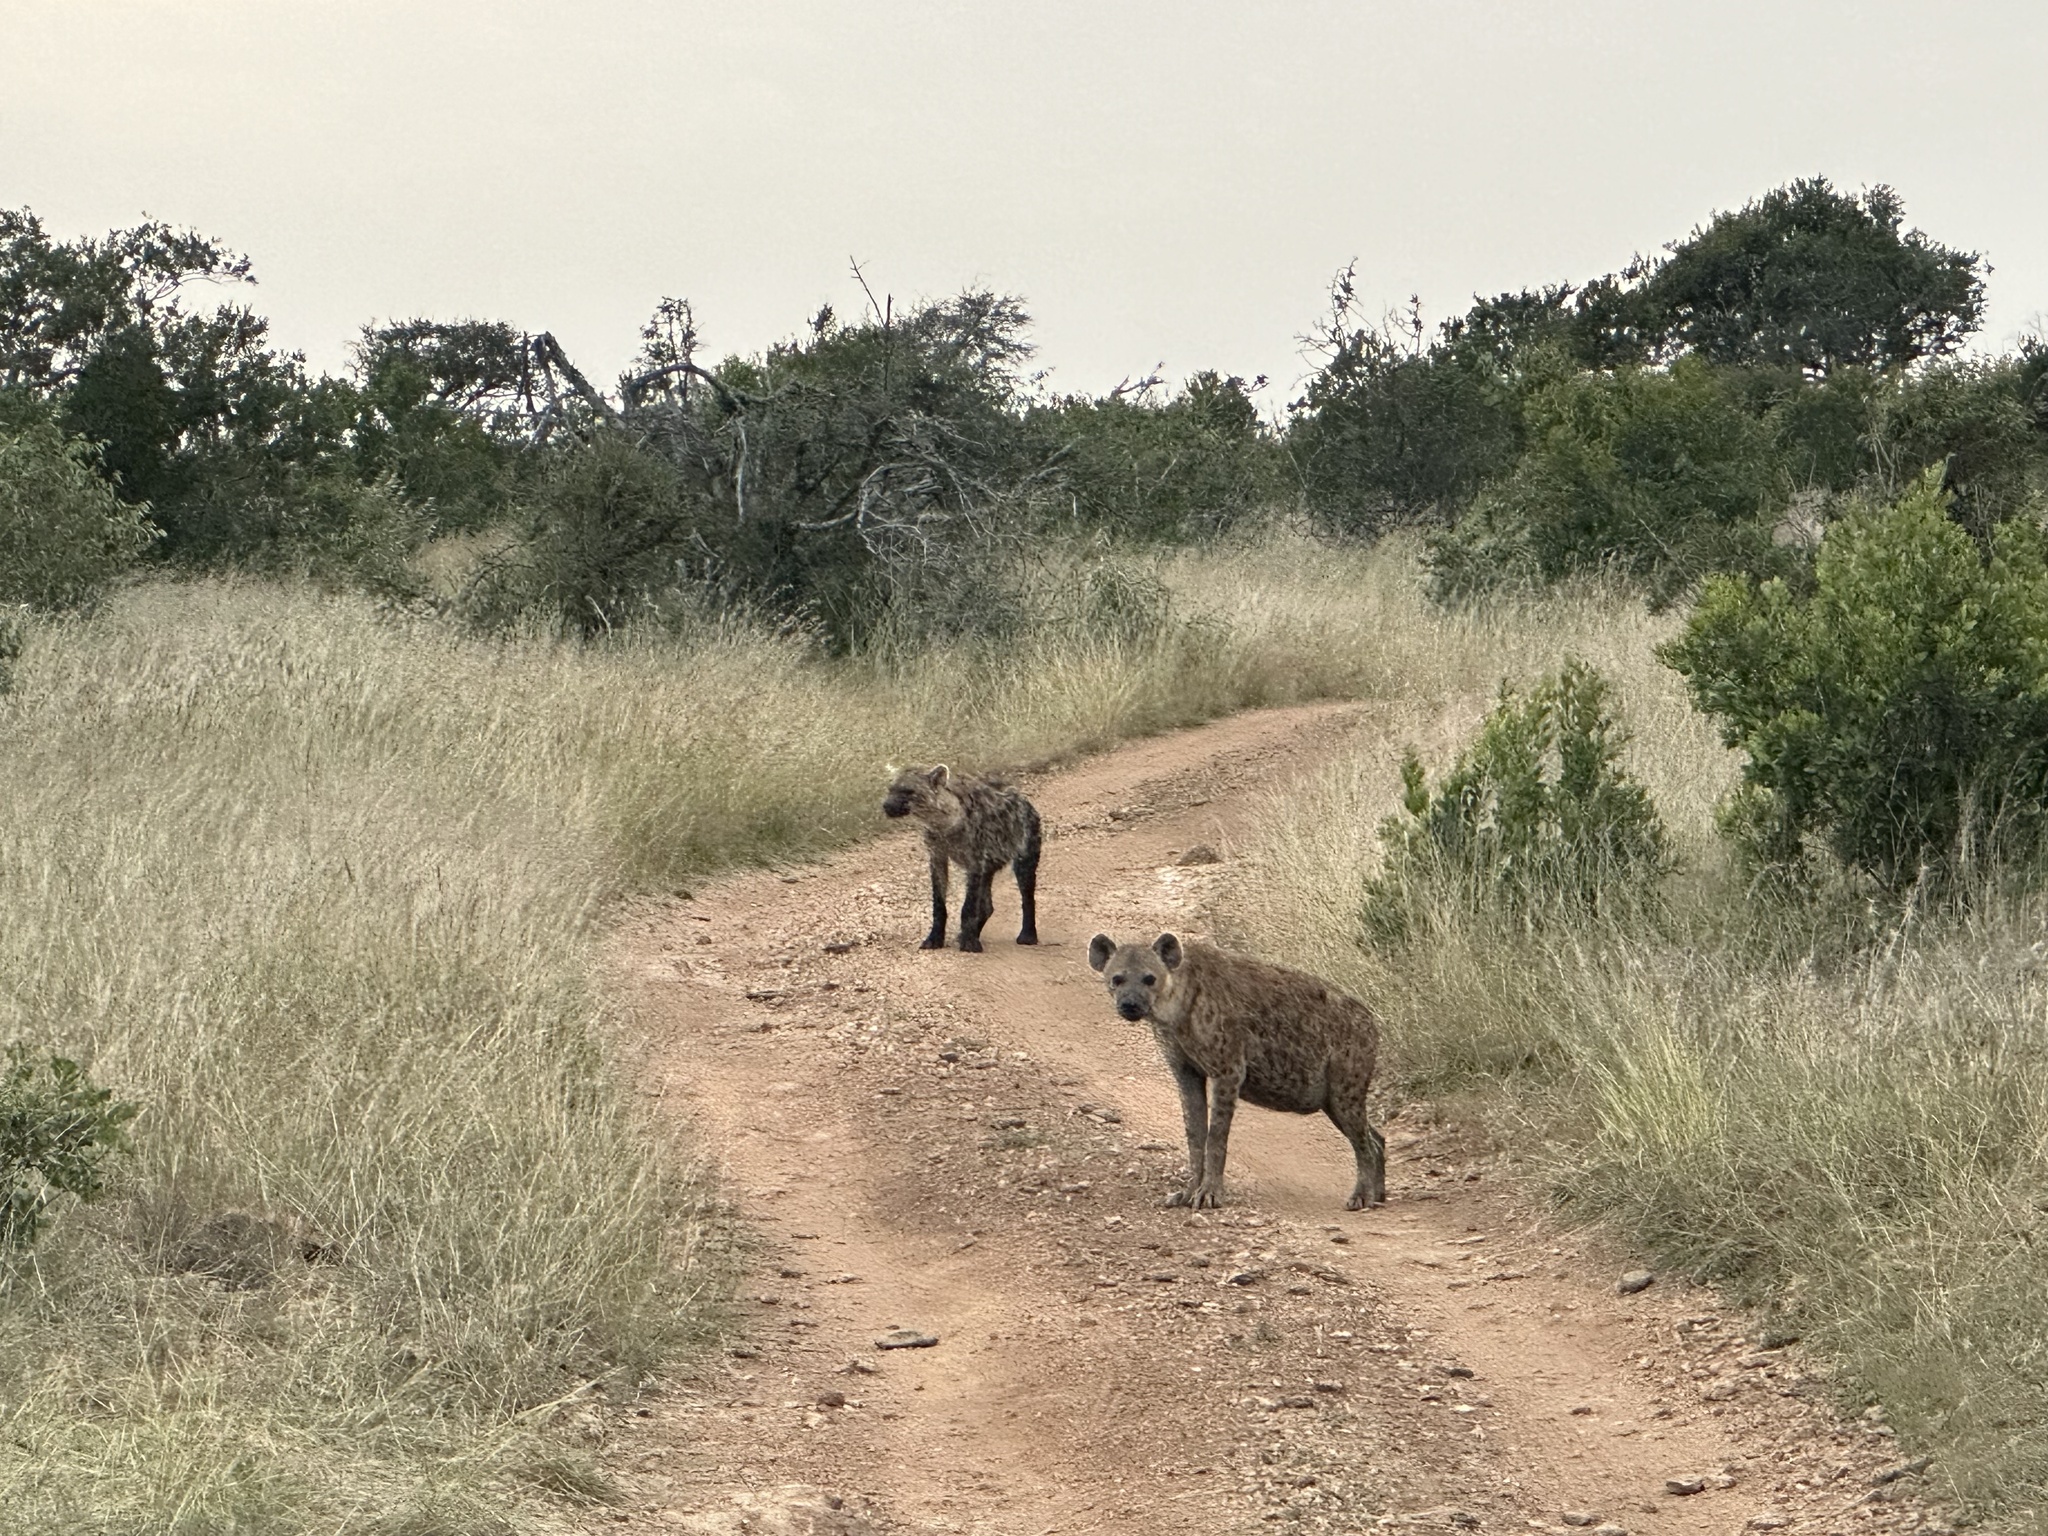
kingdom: Animalia
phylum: Chordata
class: Mammalia
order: Carnivora
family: Hyaenidae
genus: Crocuta
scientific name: Crocuta crocuta
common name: Spotted hyaena
